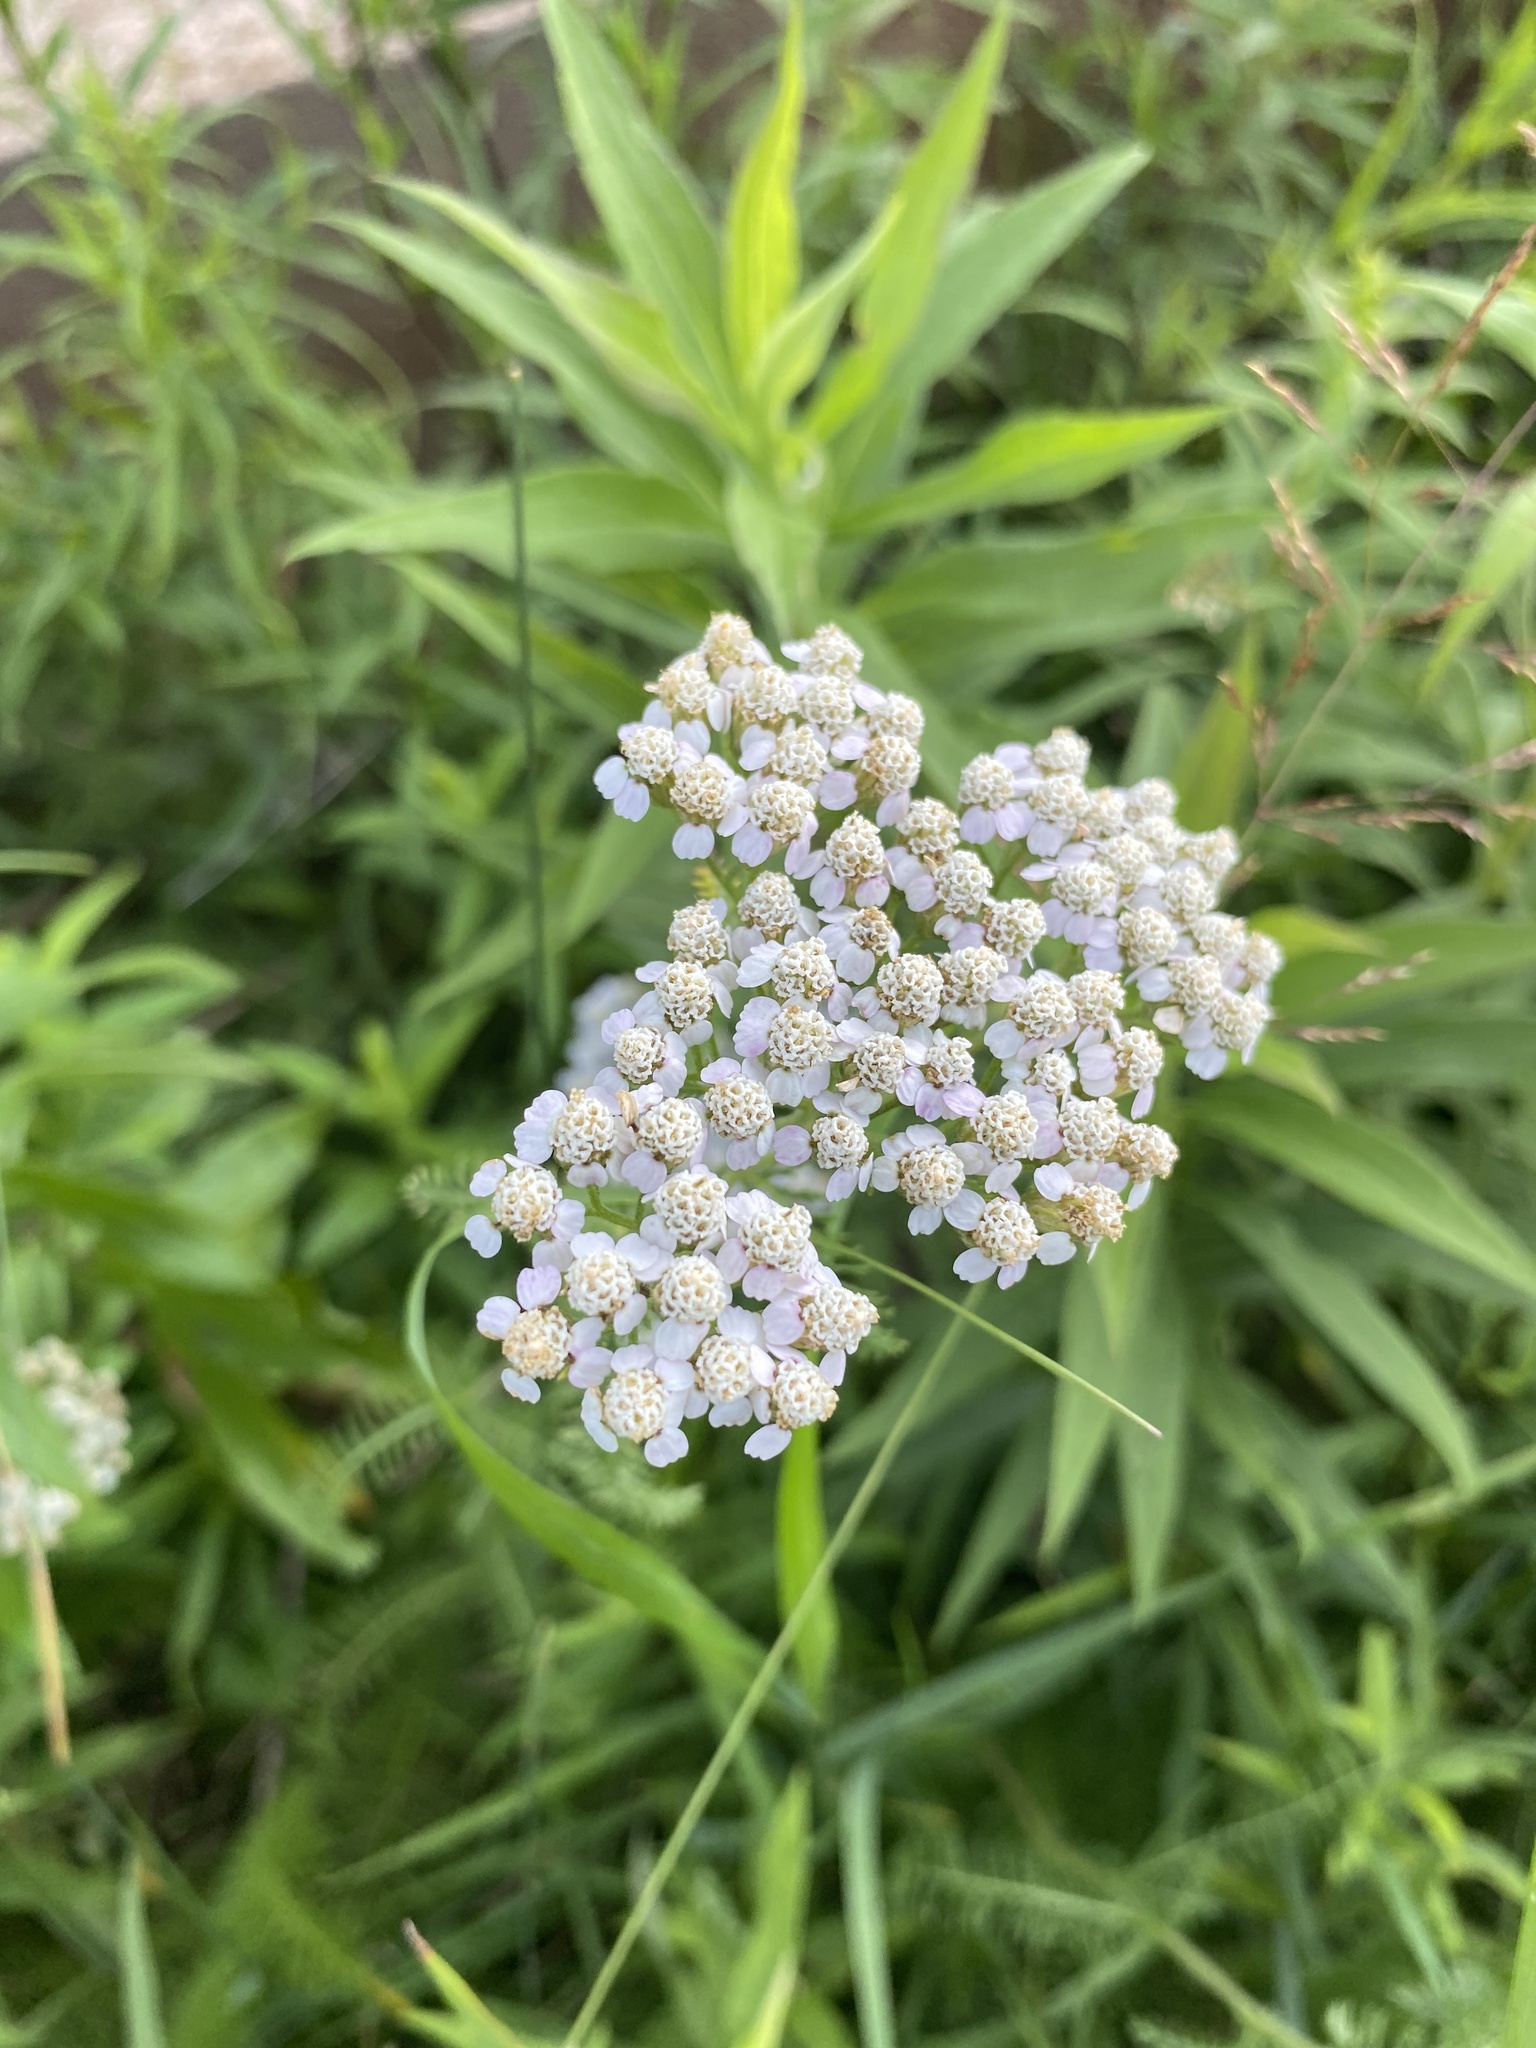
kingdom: Plantae
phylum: Tracheophyta
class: Magnoliopsida
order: Asterales
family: Asteraceae
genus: Achillea
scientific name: Achillea millefolium
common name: Yarrow
